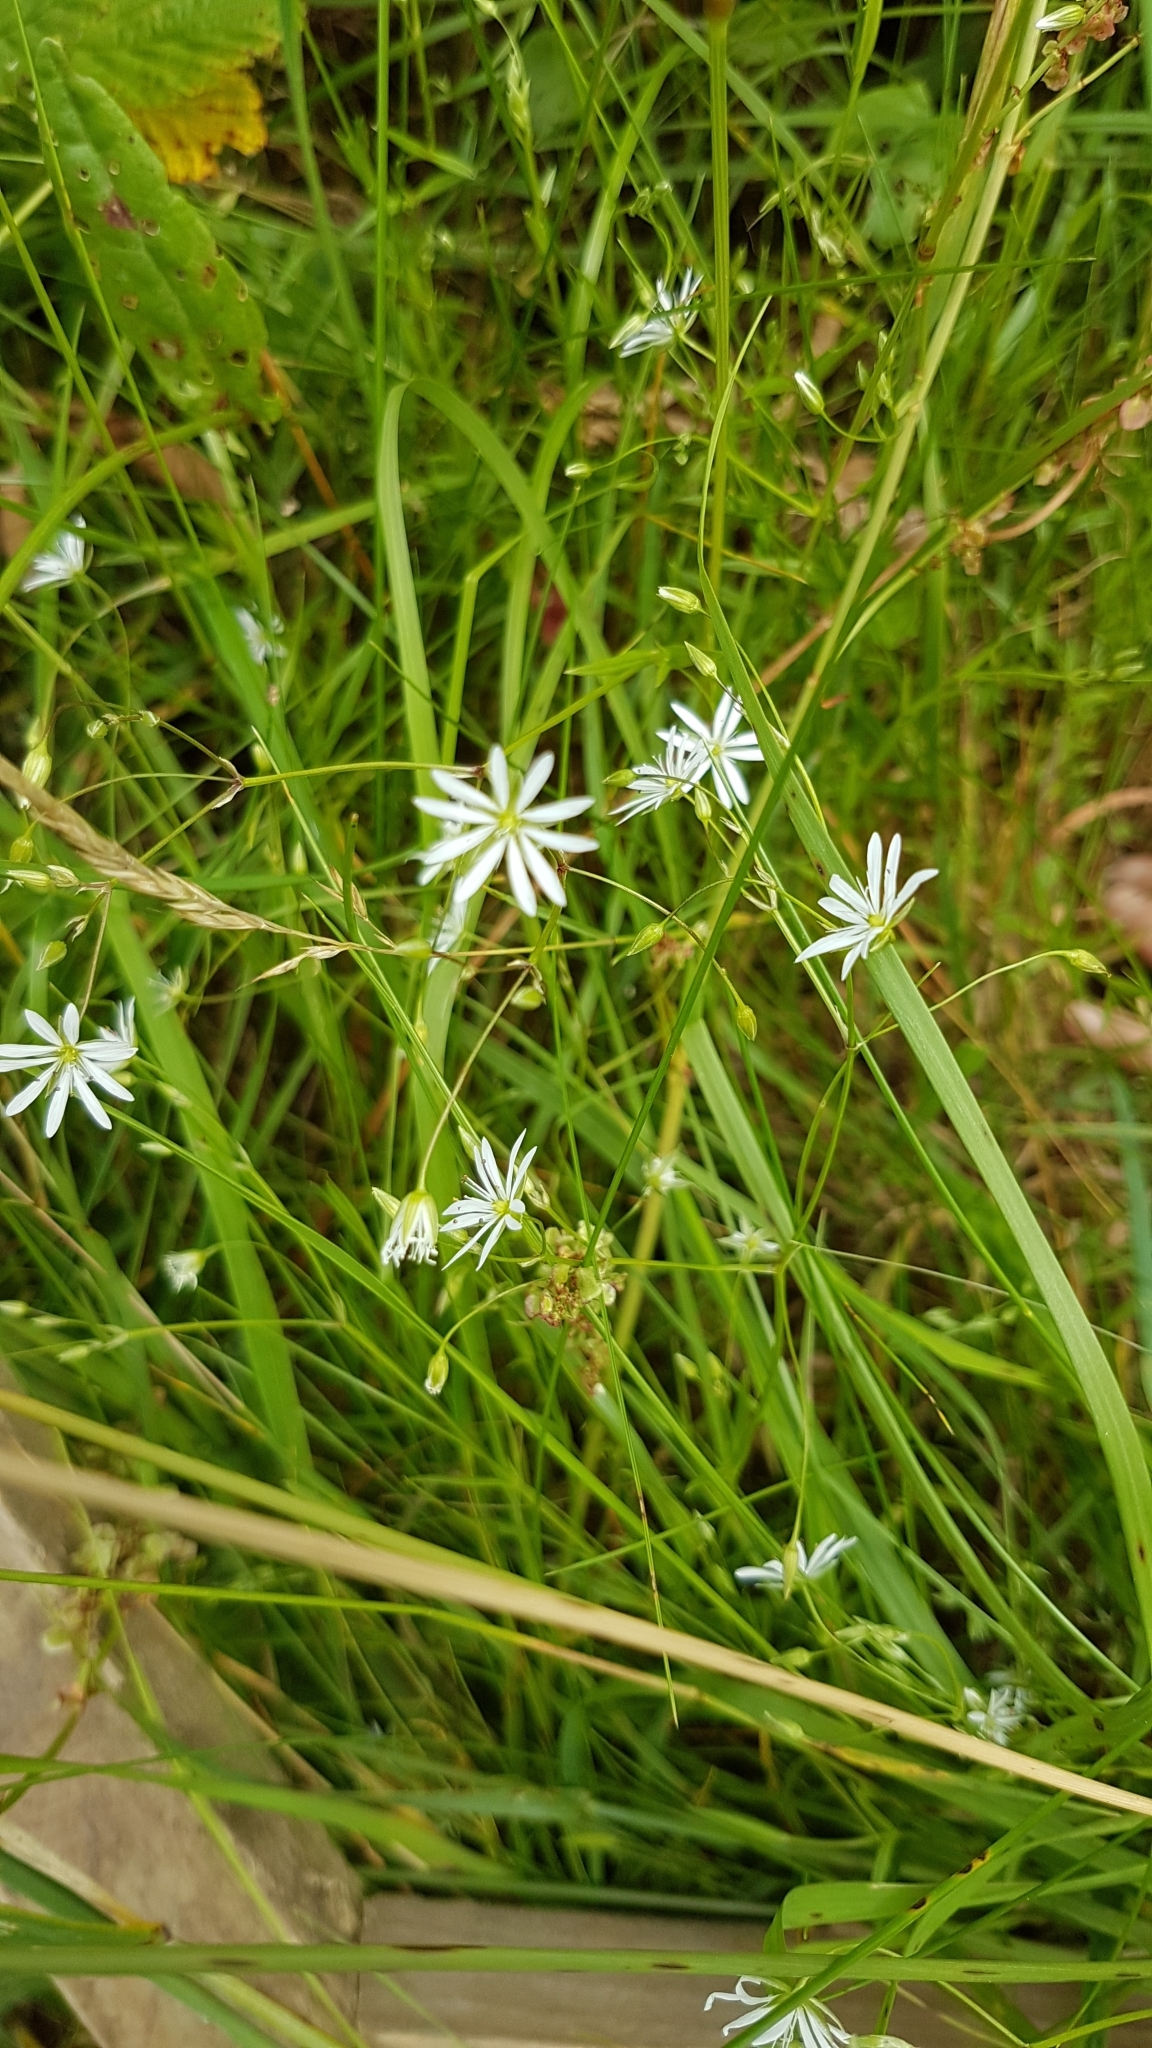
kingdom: Plantae
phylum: Tracheophyta
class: Magnoliopsida
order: Caryophyllales
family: Caryophyllaceae
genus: Stellaria
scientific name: Stellaria graminea
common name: Grass-like starwort
